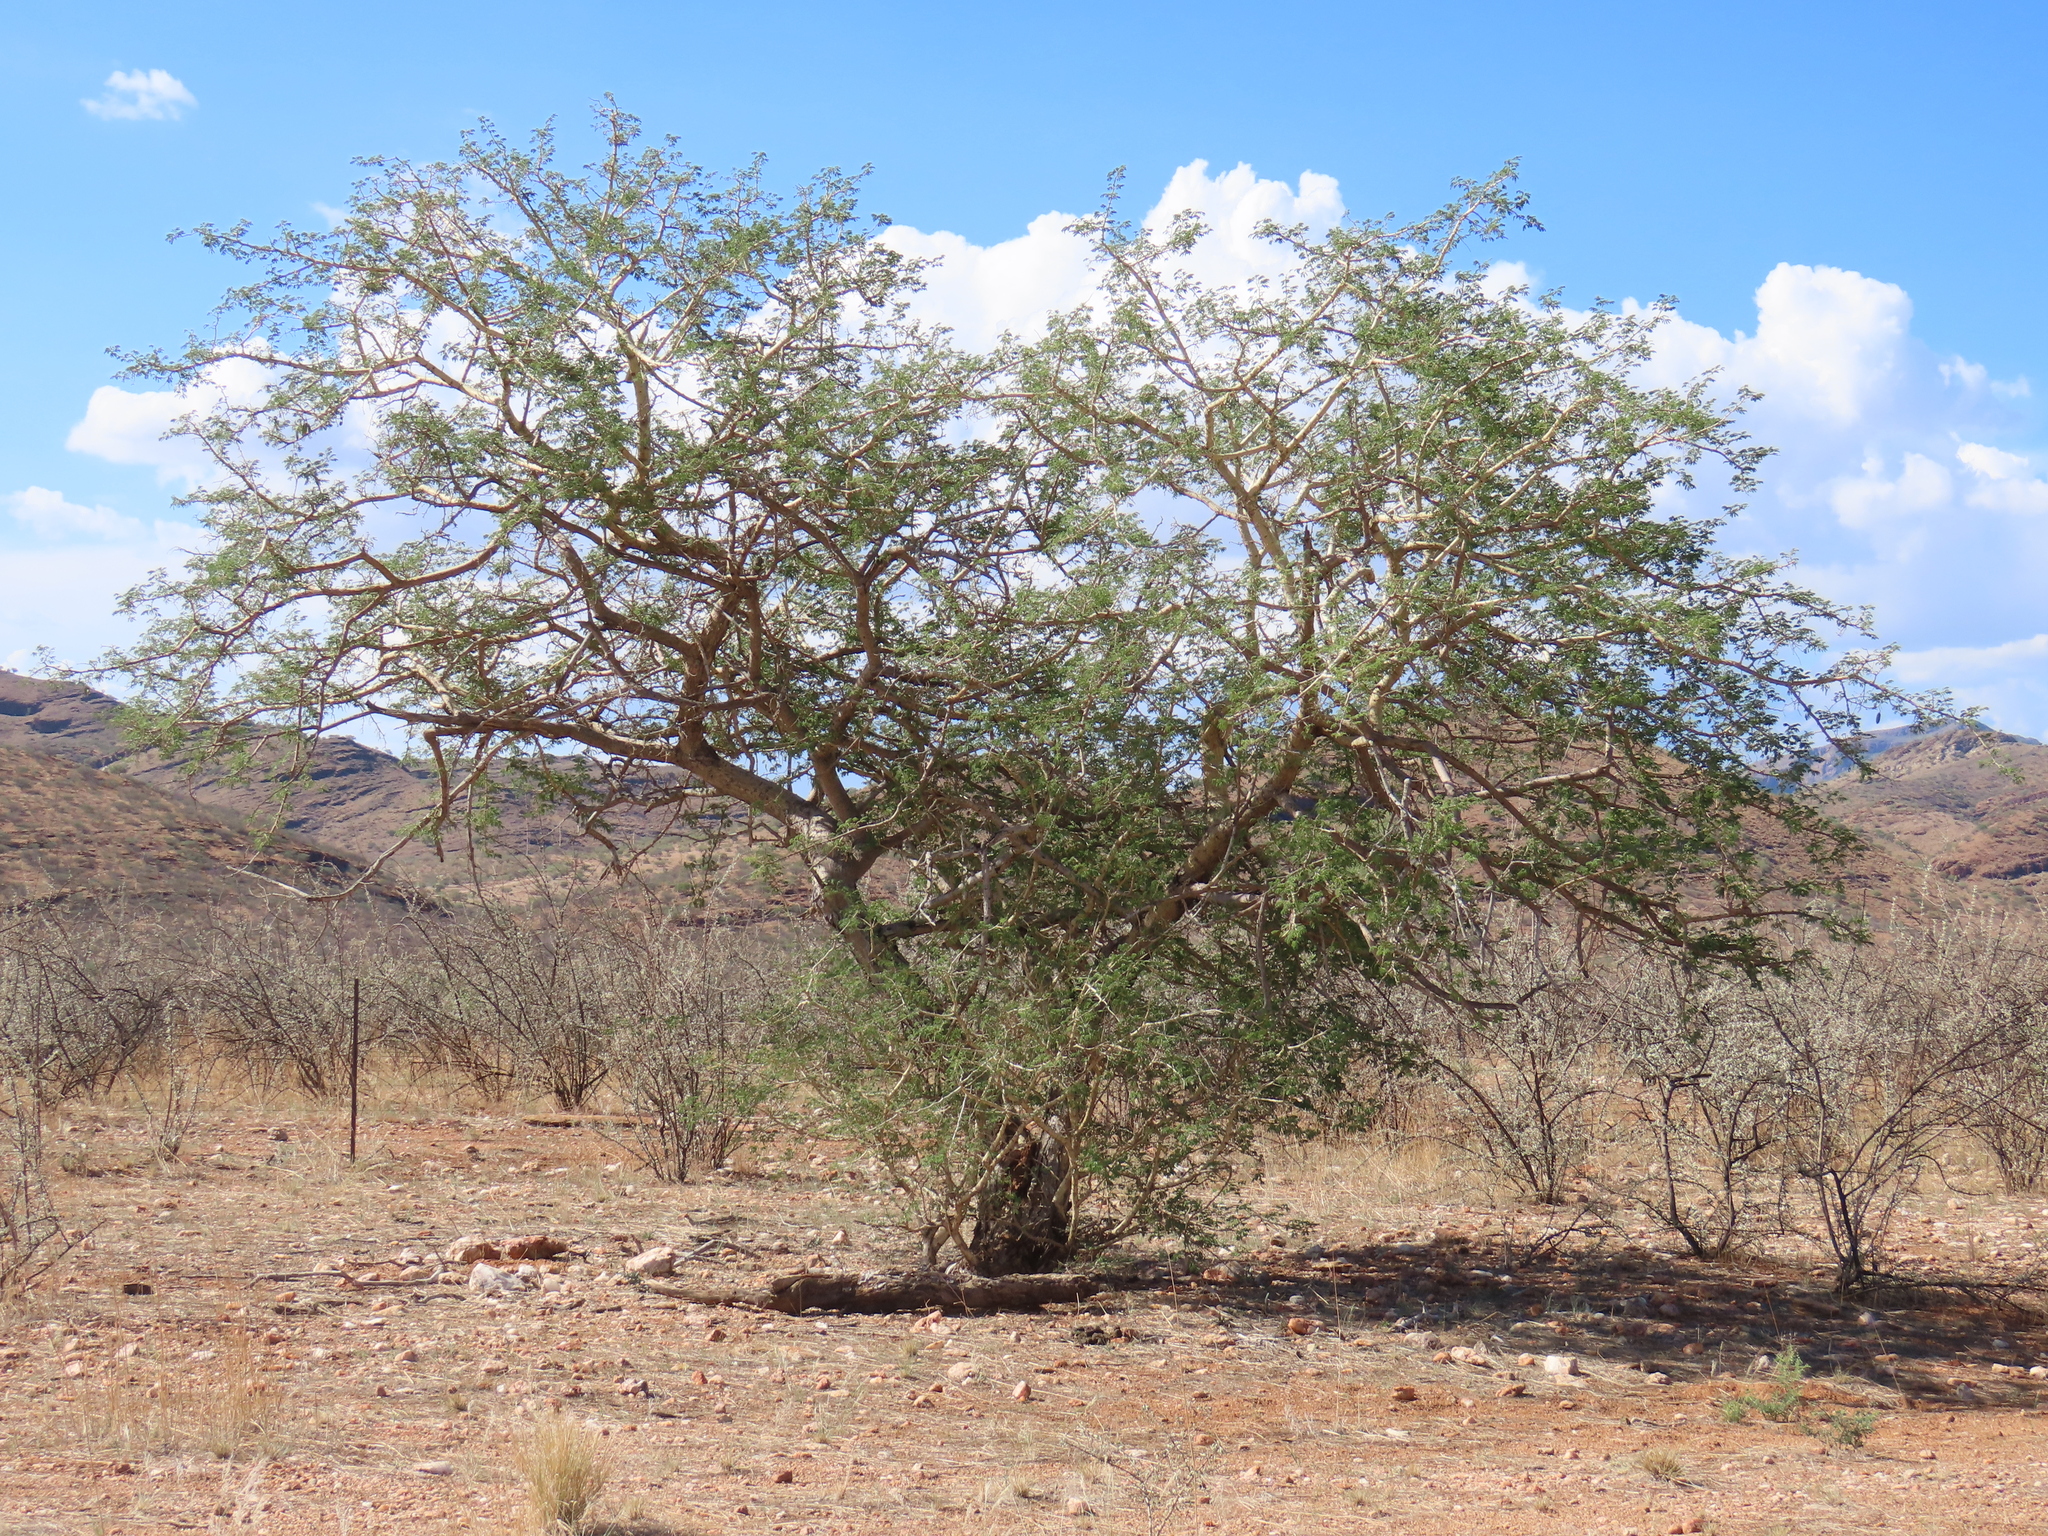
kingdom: Plantae
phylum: Tracheophyta
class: Magnoliopsida
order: Fabales
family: Fabaceae
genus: Senegalia
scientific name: Senegalia erubescens
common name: Bluethorn
